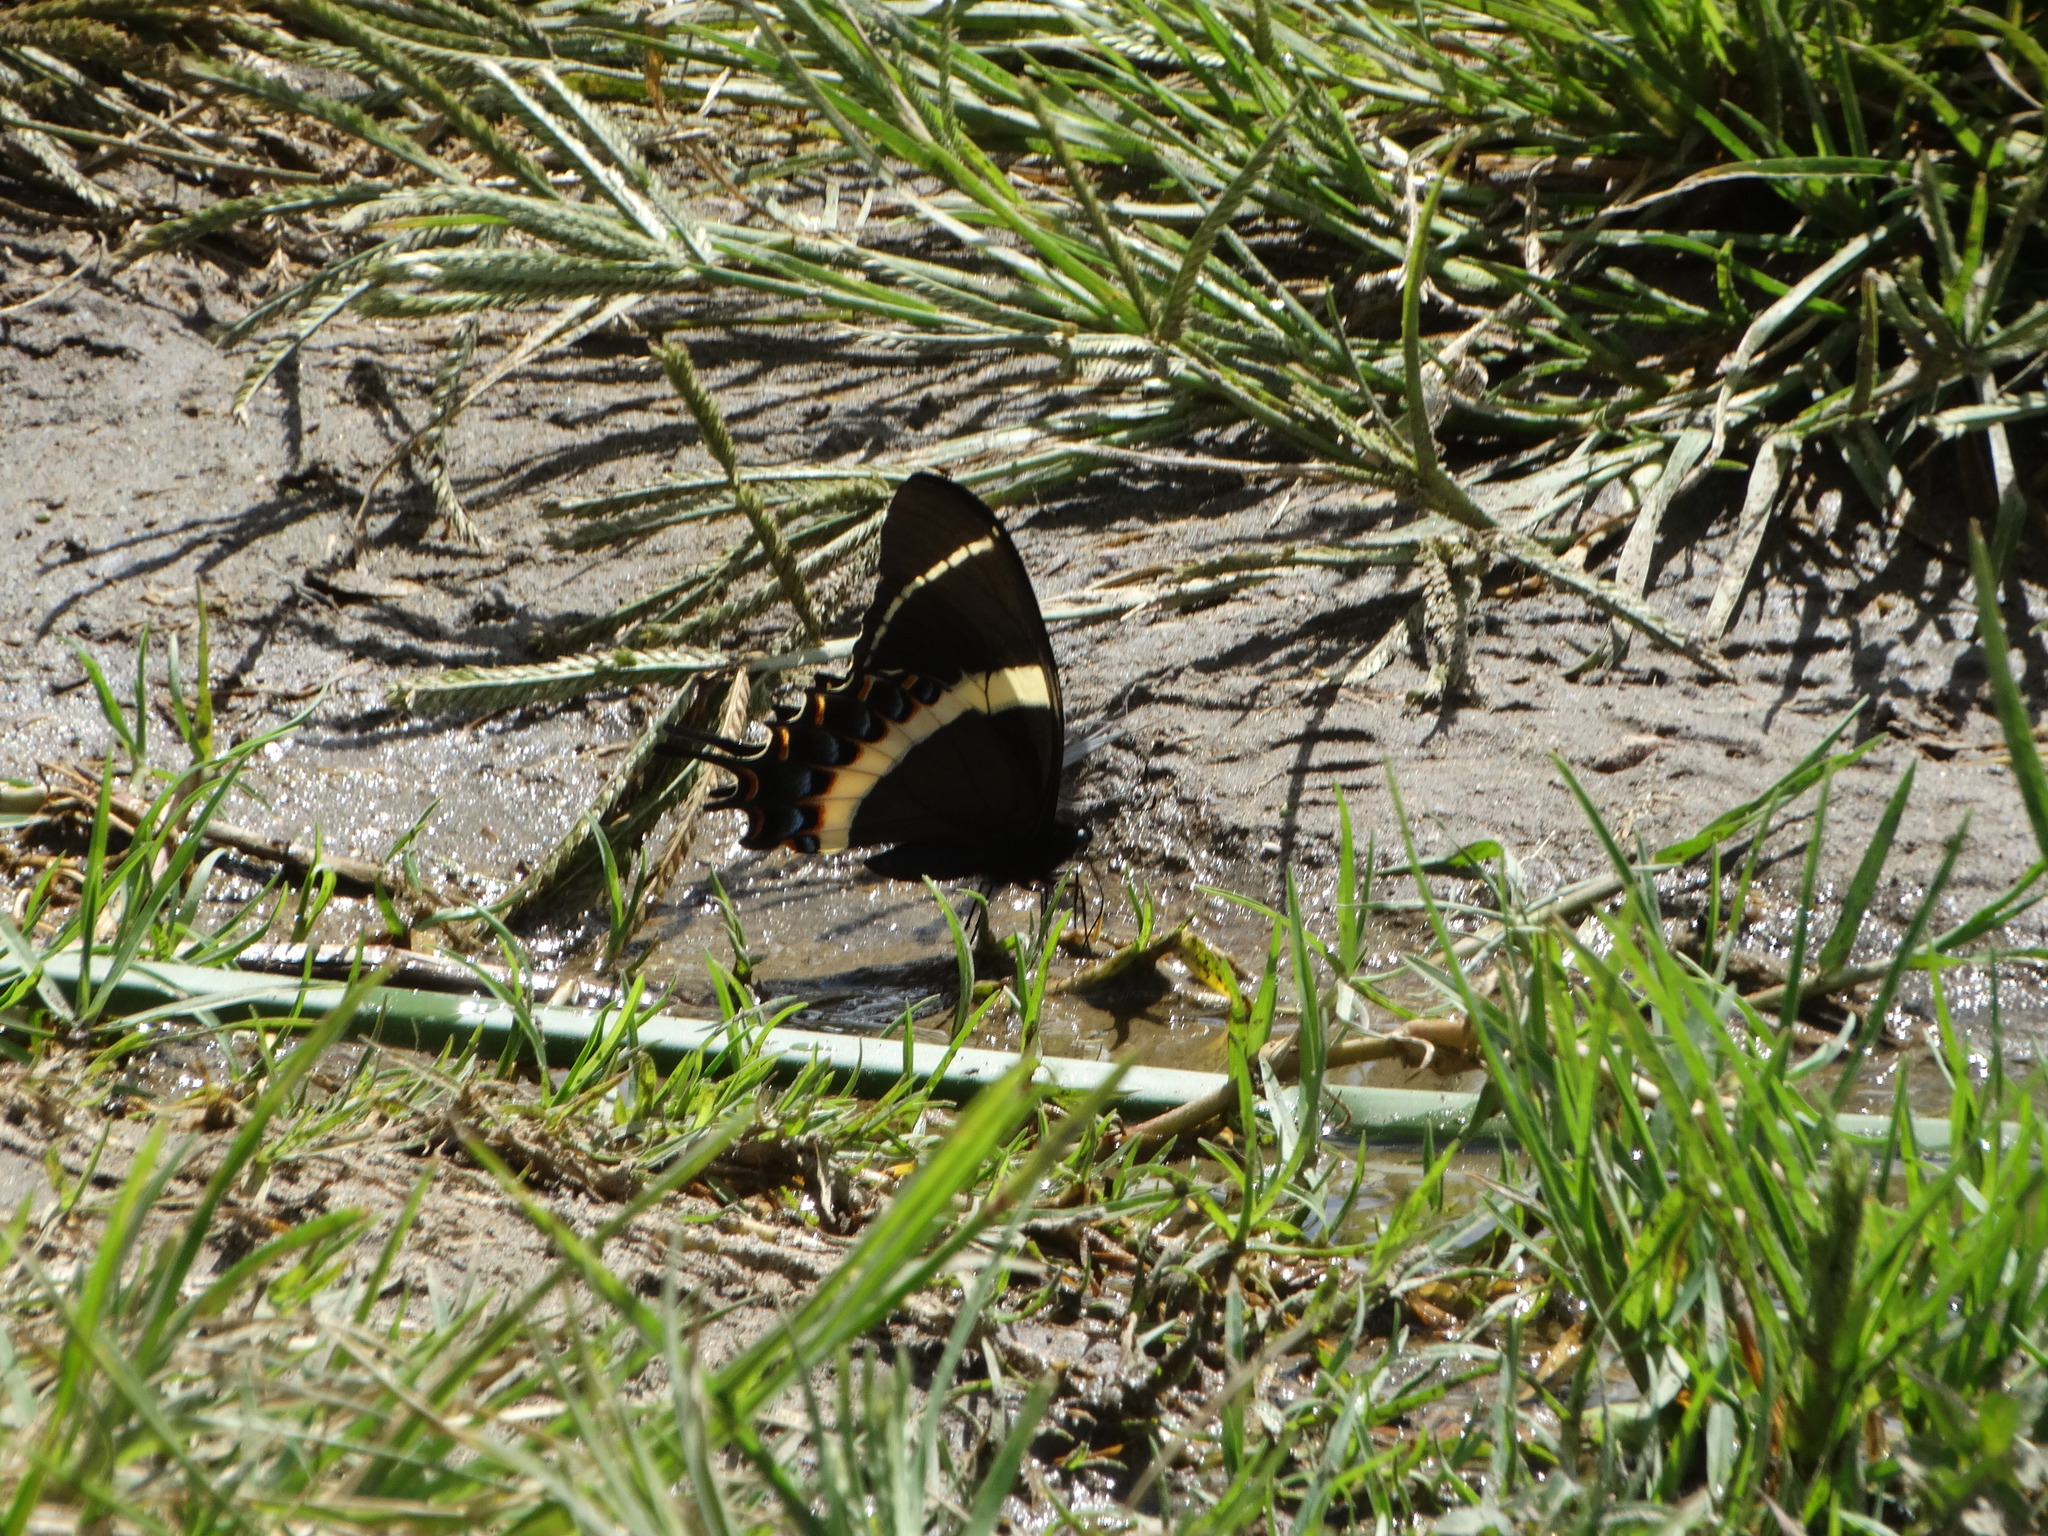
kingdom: Animalia
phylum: Arthropoda
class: Insecta
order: Lepidoptera
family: Papilionidae
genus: Papilio
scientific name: Papilio garamas
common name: Magnificent swallowtail
